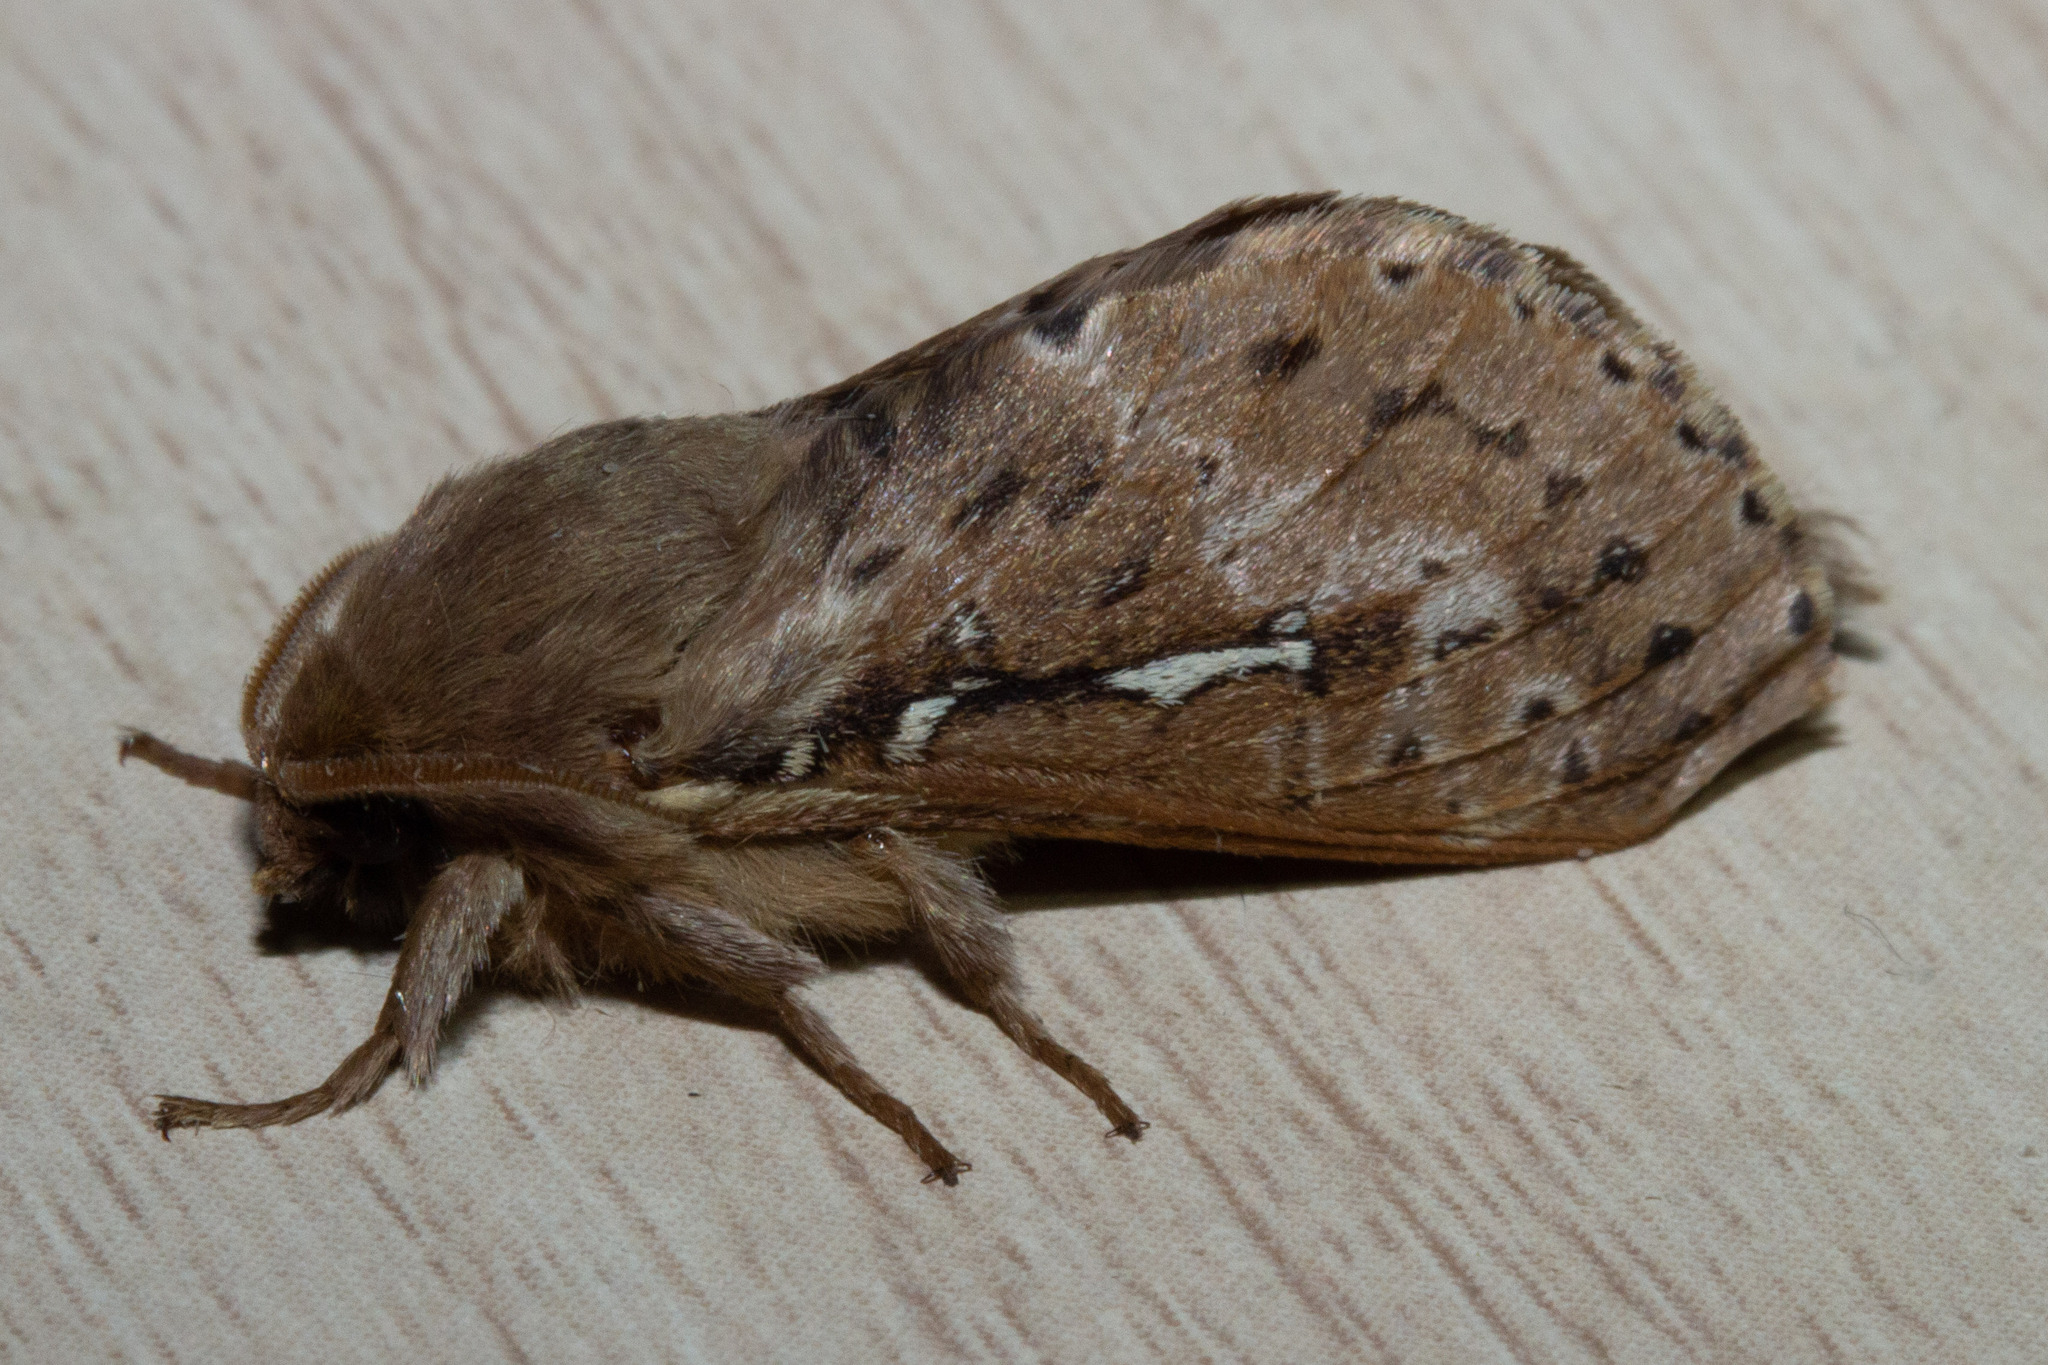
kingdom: Animalia
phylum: Arthropoda
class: Insecta
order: Lepidoptera
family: Hepialidae
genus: Wiseana
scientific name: Wiseana copularis
